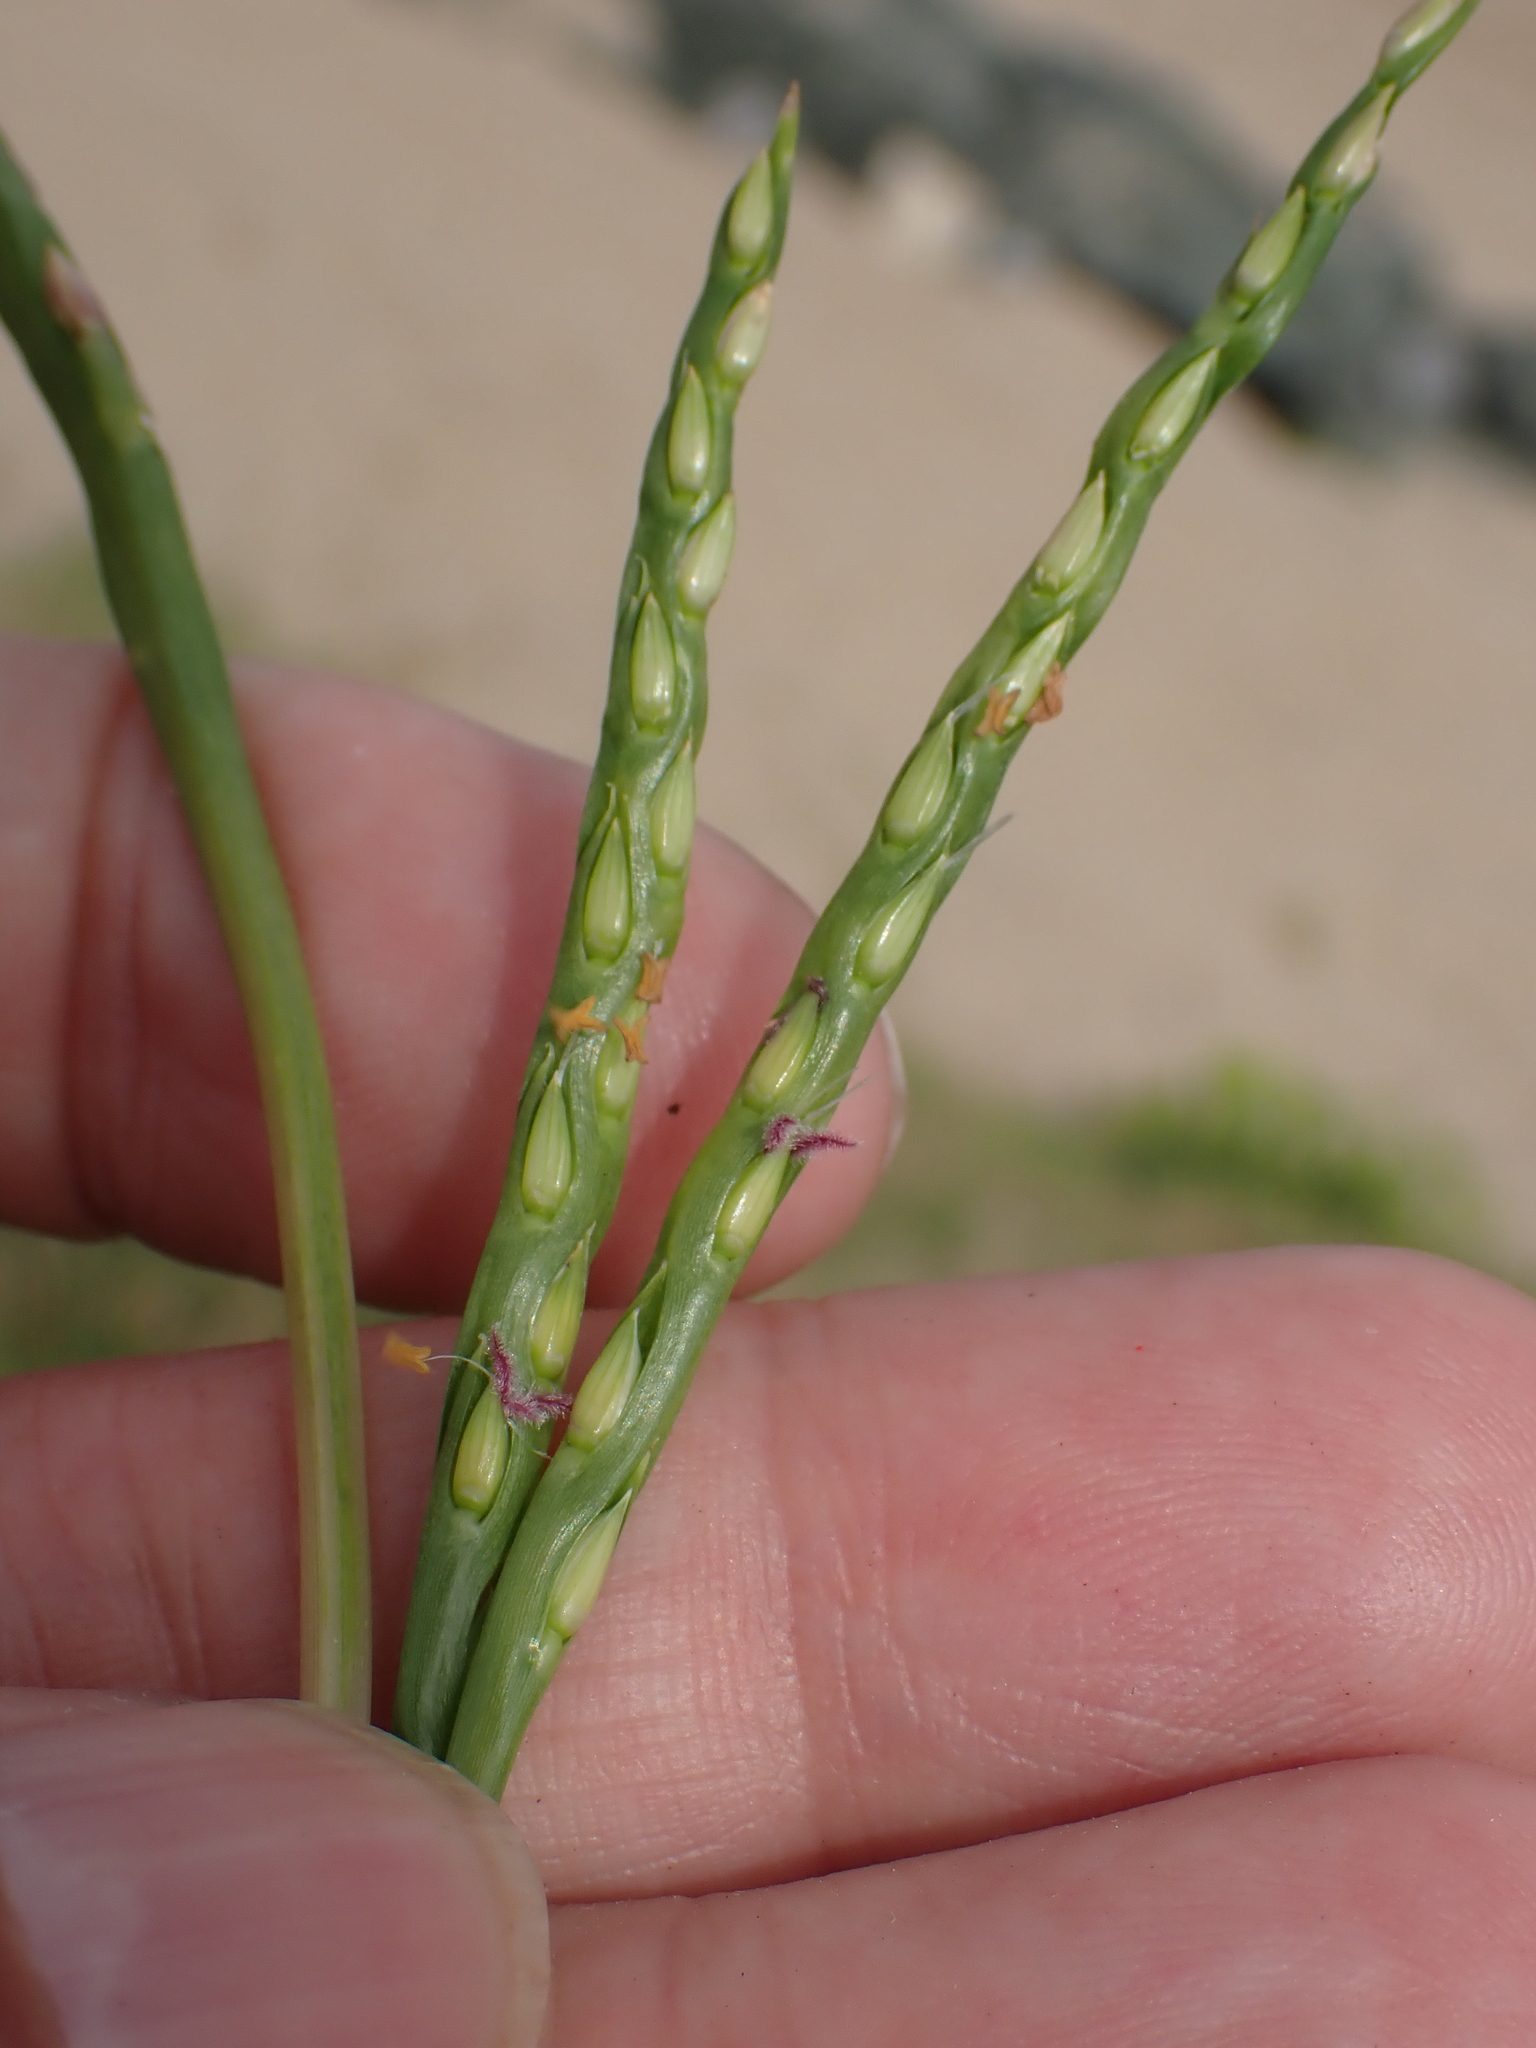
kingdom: Plantae
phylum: Tracheophyta
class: Liliopsida
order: Poales
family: Poaceae
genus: Stenotaphrum
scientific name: Stenotaphrum secundatum
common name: St. augustine grass
